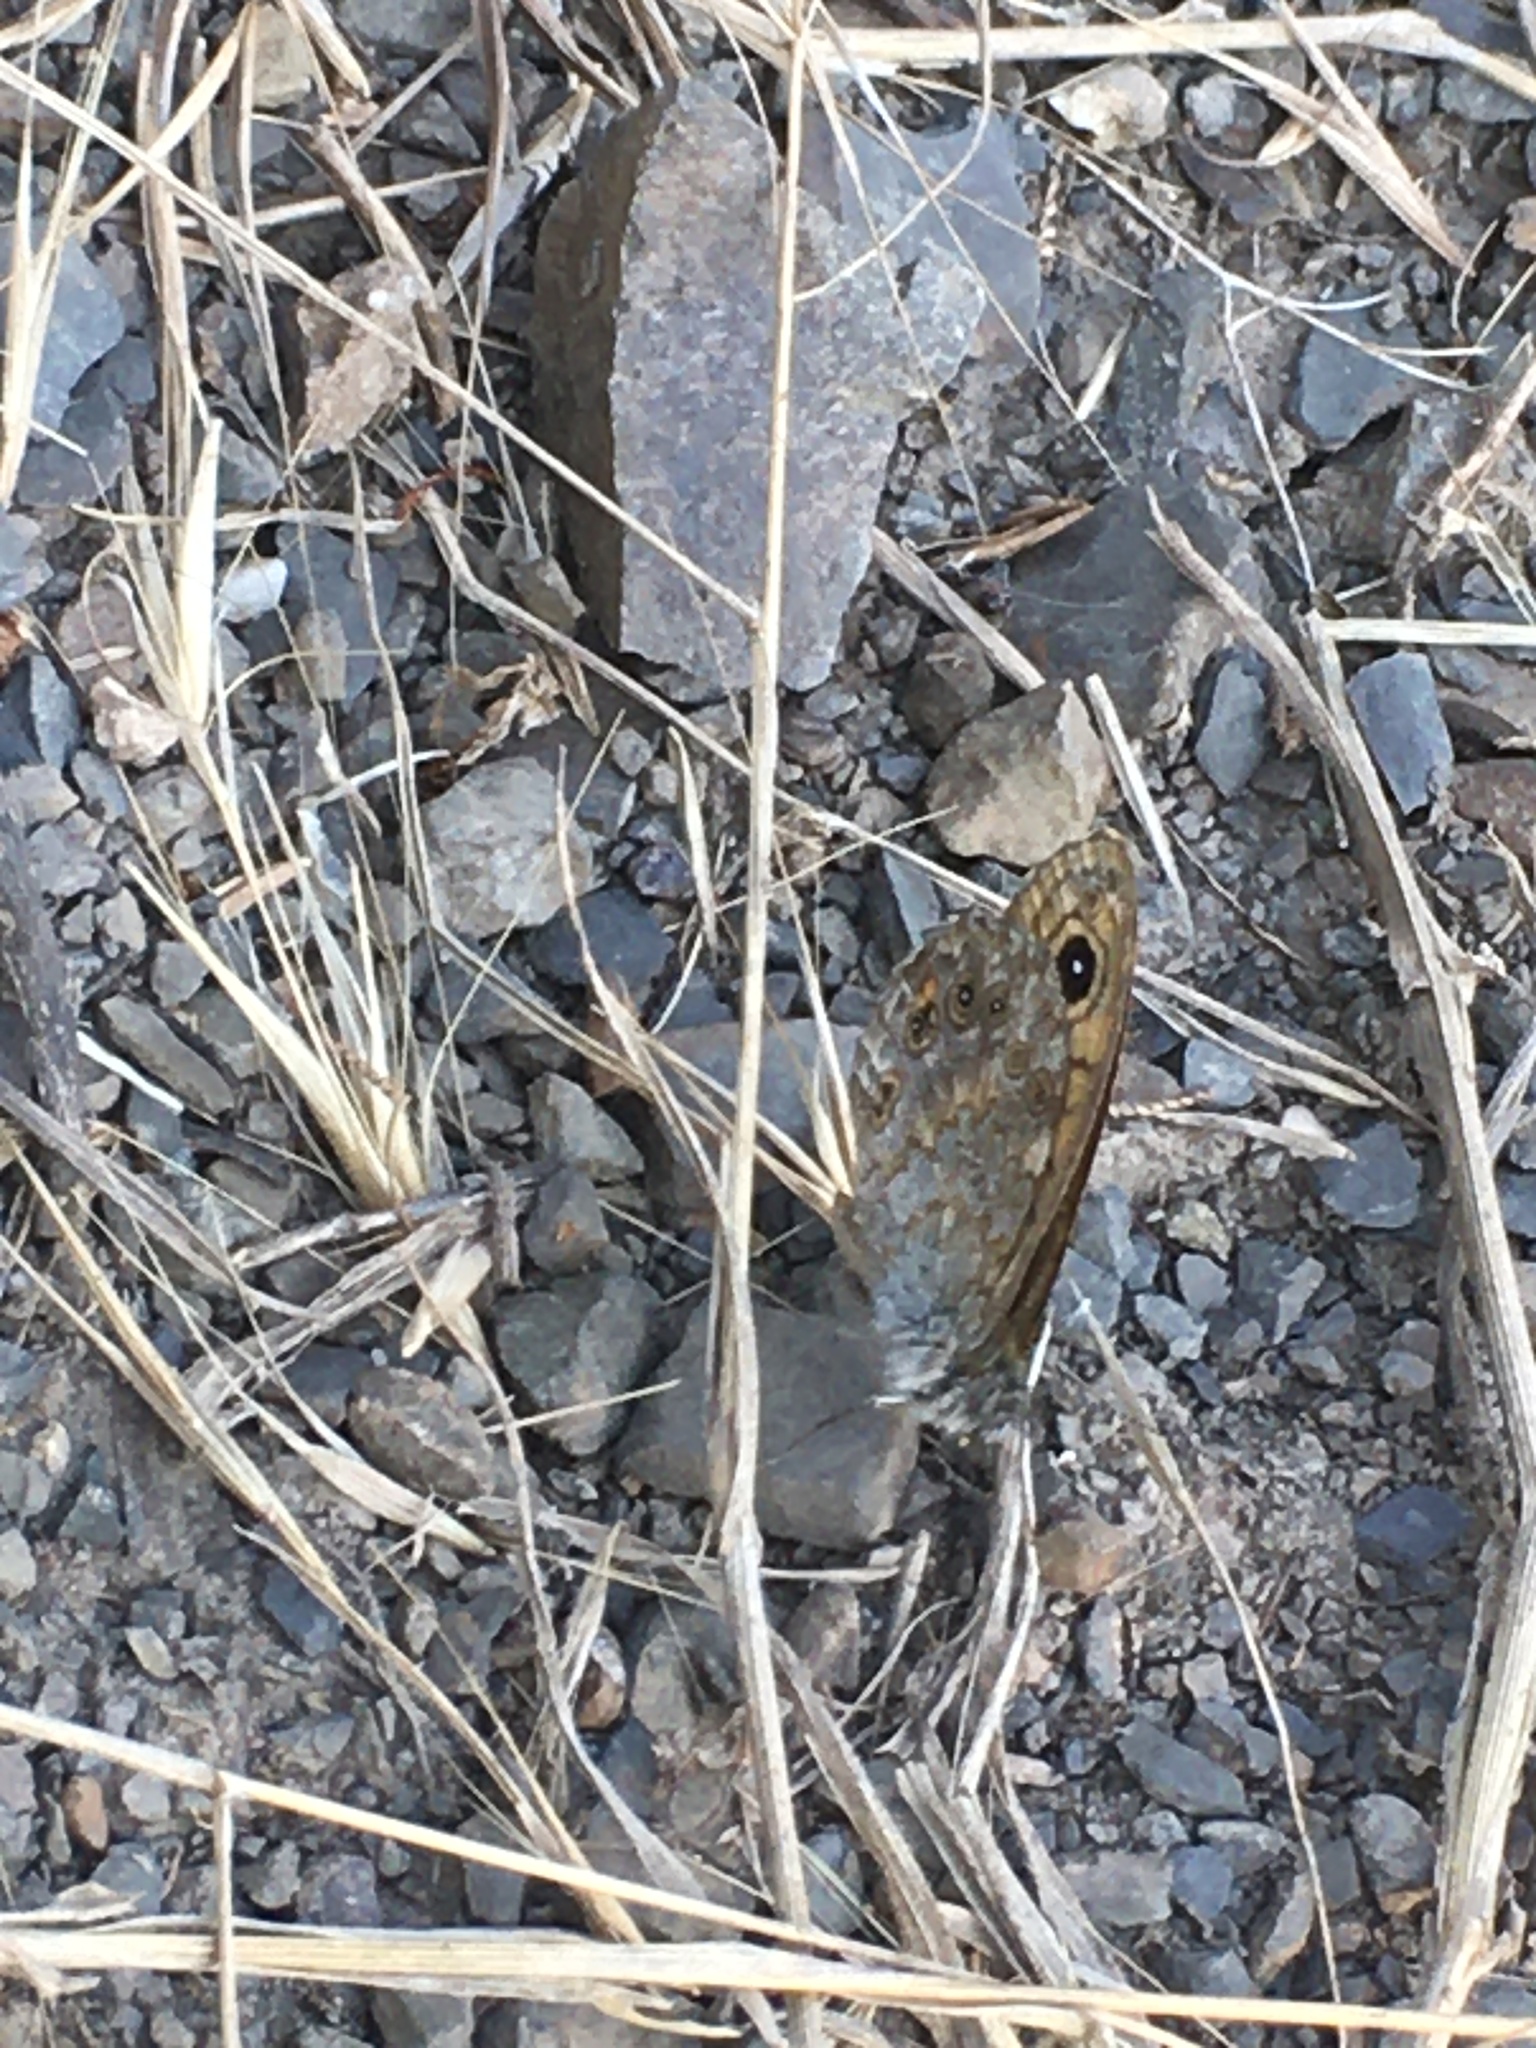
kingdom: Animalia
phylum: Arthropoda
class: Insecta
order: Lepidoptera
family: Nymphalidae
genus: Pararge
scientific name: Pararge Lasiommata megera
